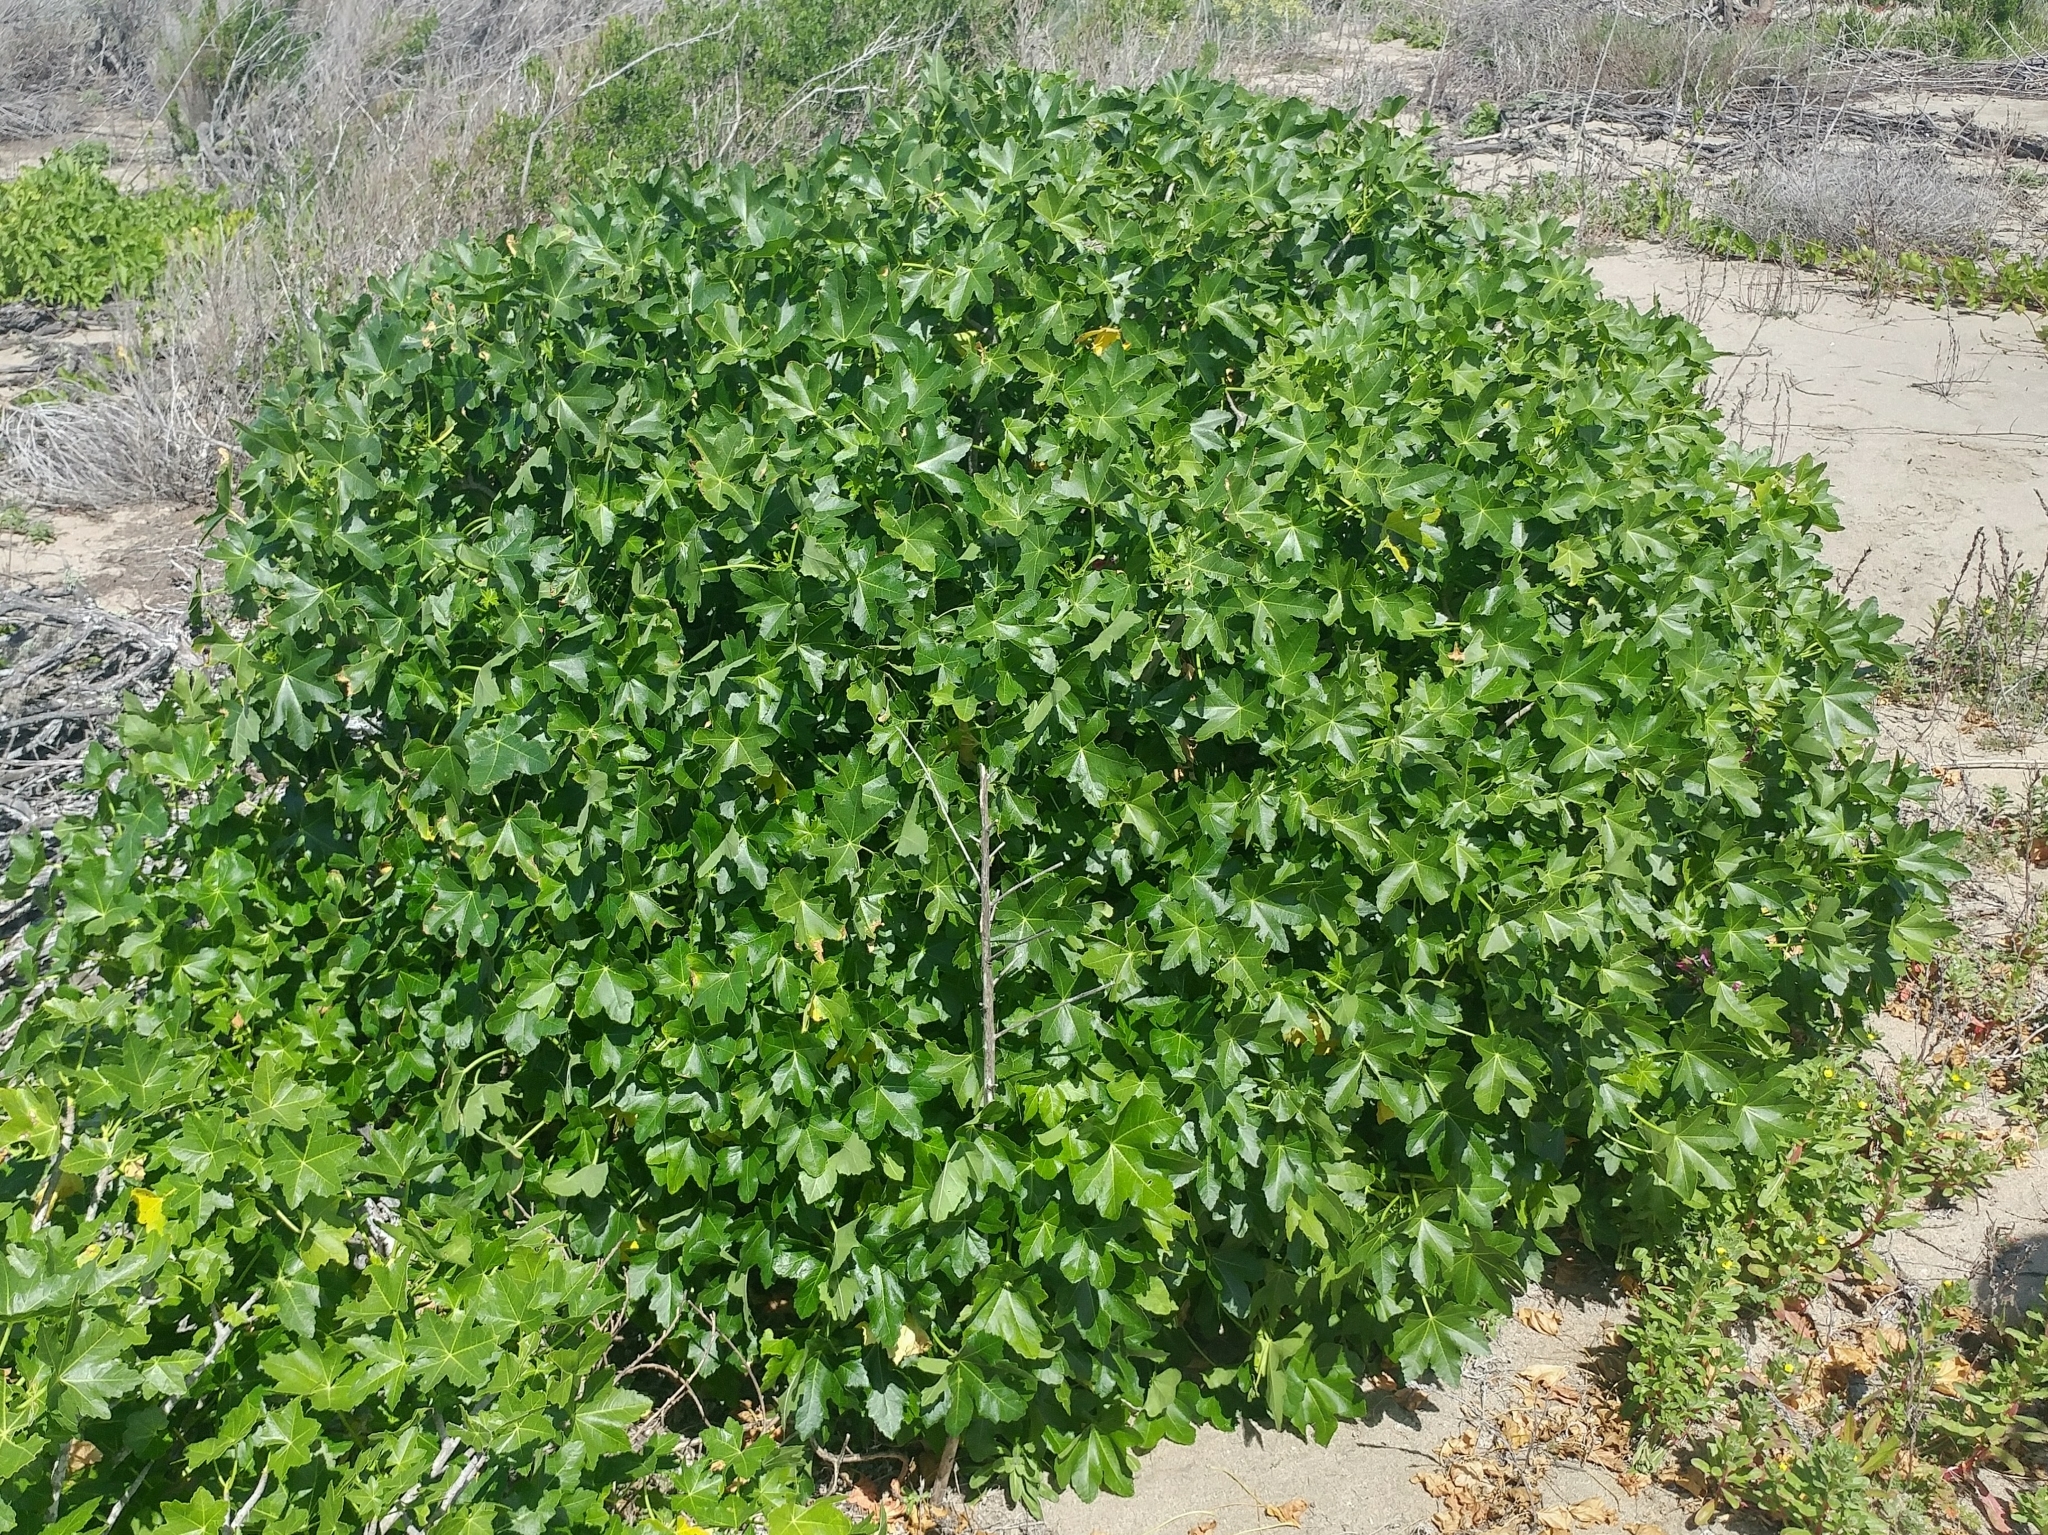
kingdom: Plantae
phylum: Tracheophyta
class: Magnoliopsida
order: Malvales
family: Malvaceae
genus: Malva
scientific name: Malva assurgentiflora
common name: Island mallow
